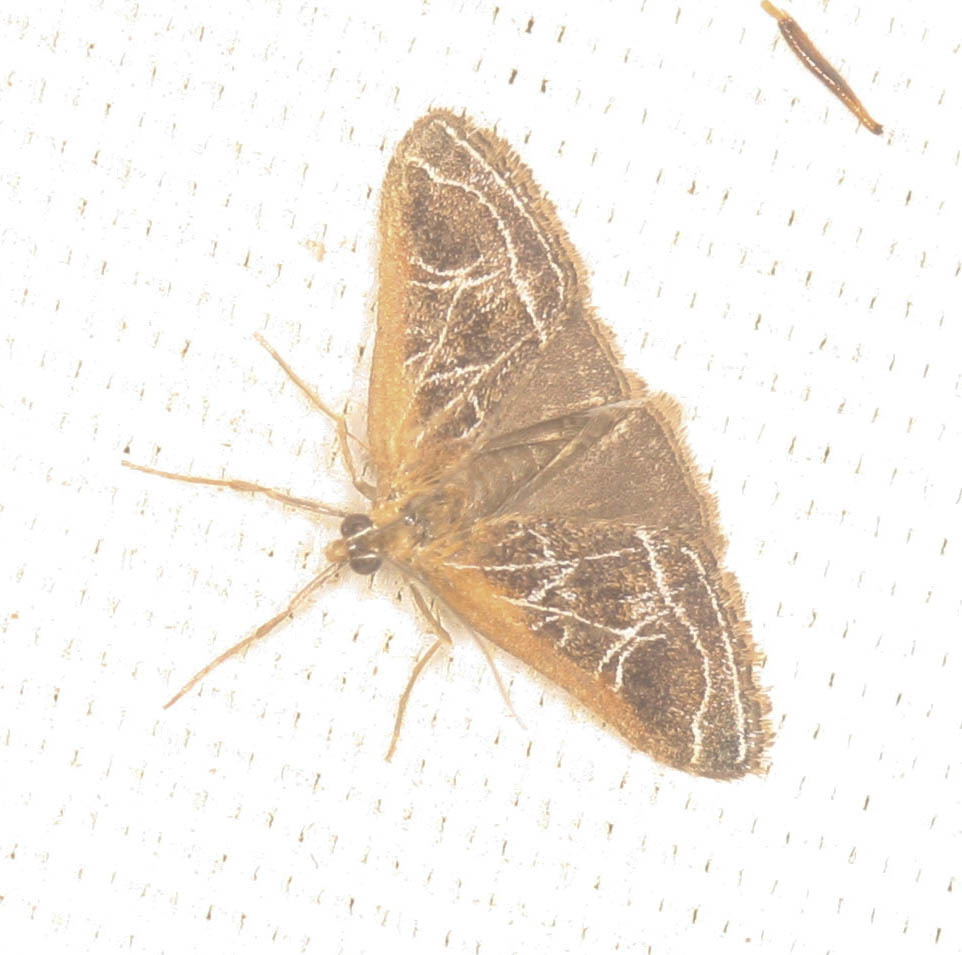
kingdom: Animalia
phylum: Arthropoda
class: Insecta
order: Lepidoptera
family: Crambidae
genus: Pyrausta
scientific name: Pyrausta nexalis
